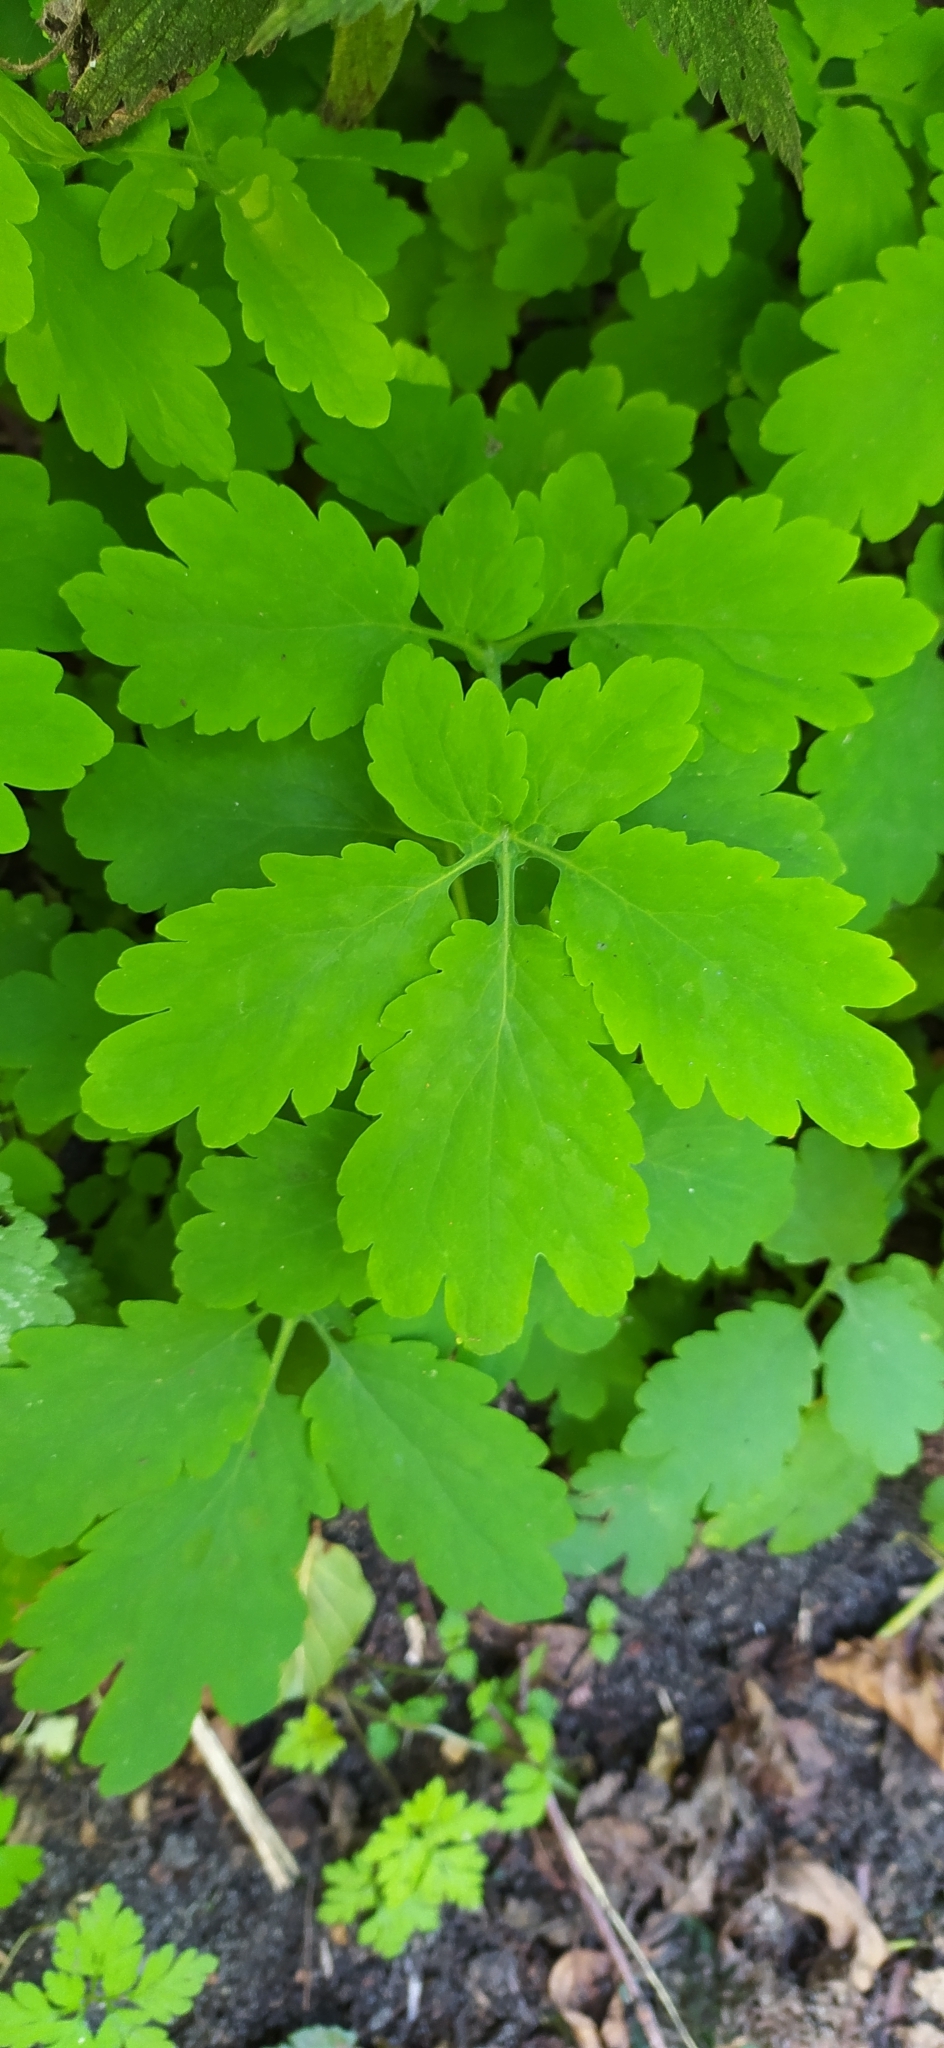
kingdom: Plantae
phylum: Tracheophyta
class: Magnoliopsida
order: Ranunculales
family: Papaveraceae
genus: Chelidonium
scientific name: Chelidonium majus
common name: Greater celandine
